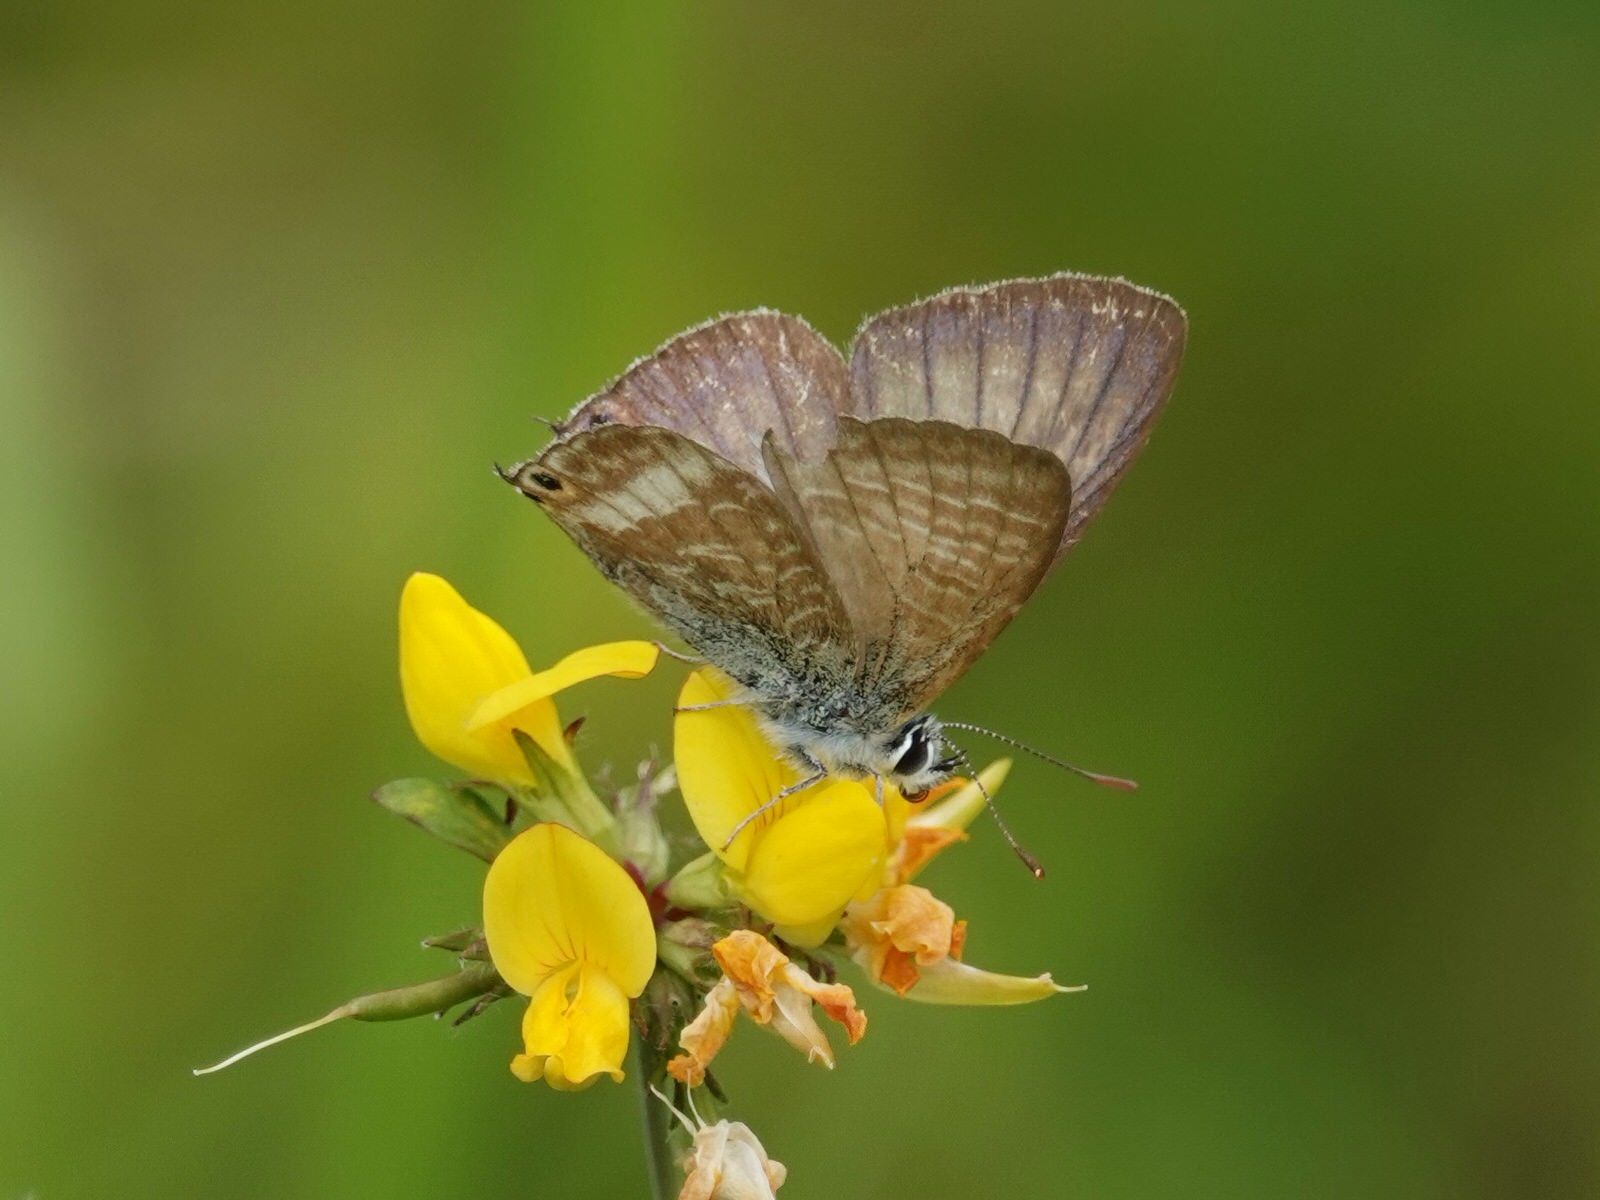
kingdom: Animalia
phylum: Arthropoda
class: Insecta
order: Lepidoptera
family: Lycaenidae
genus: Lampides
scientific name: Lampides boeticus
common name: Long-tailed blue
